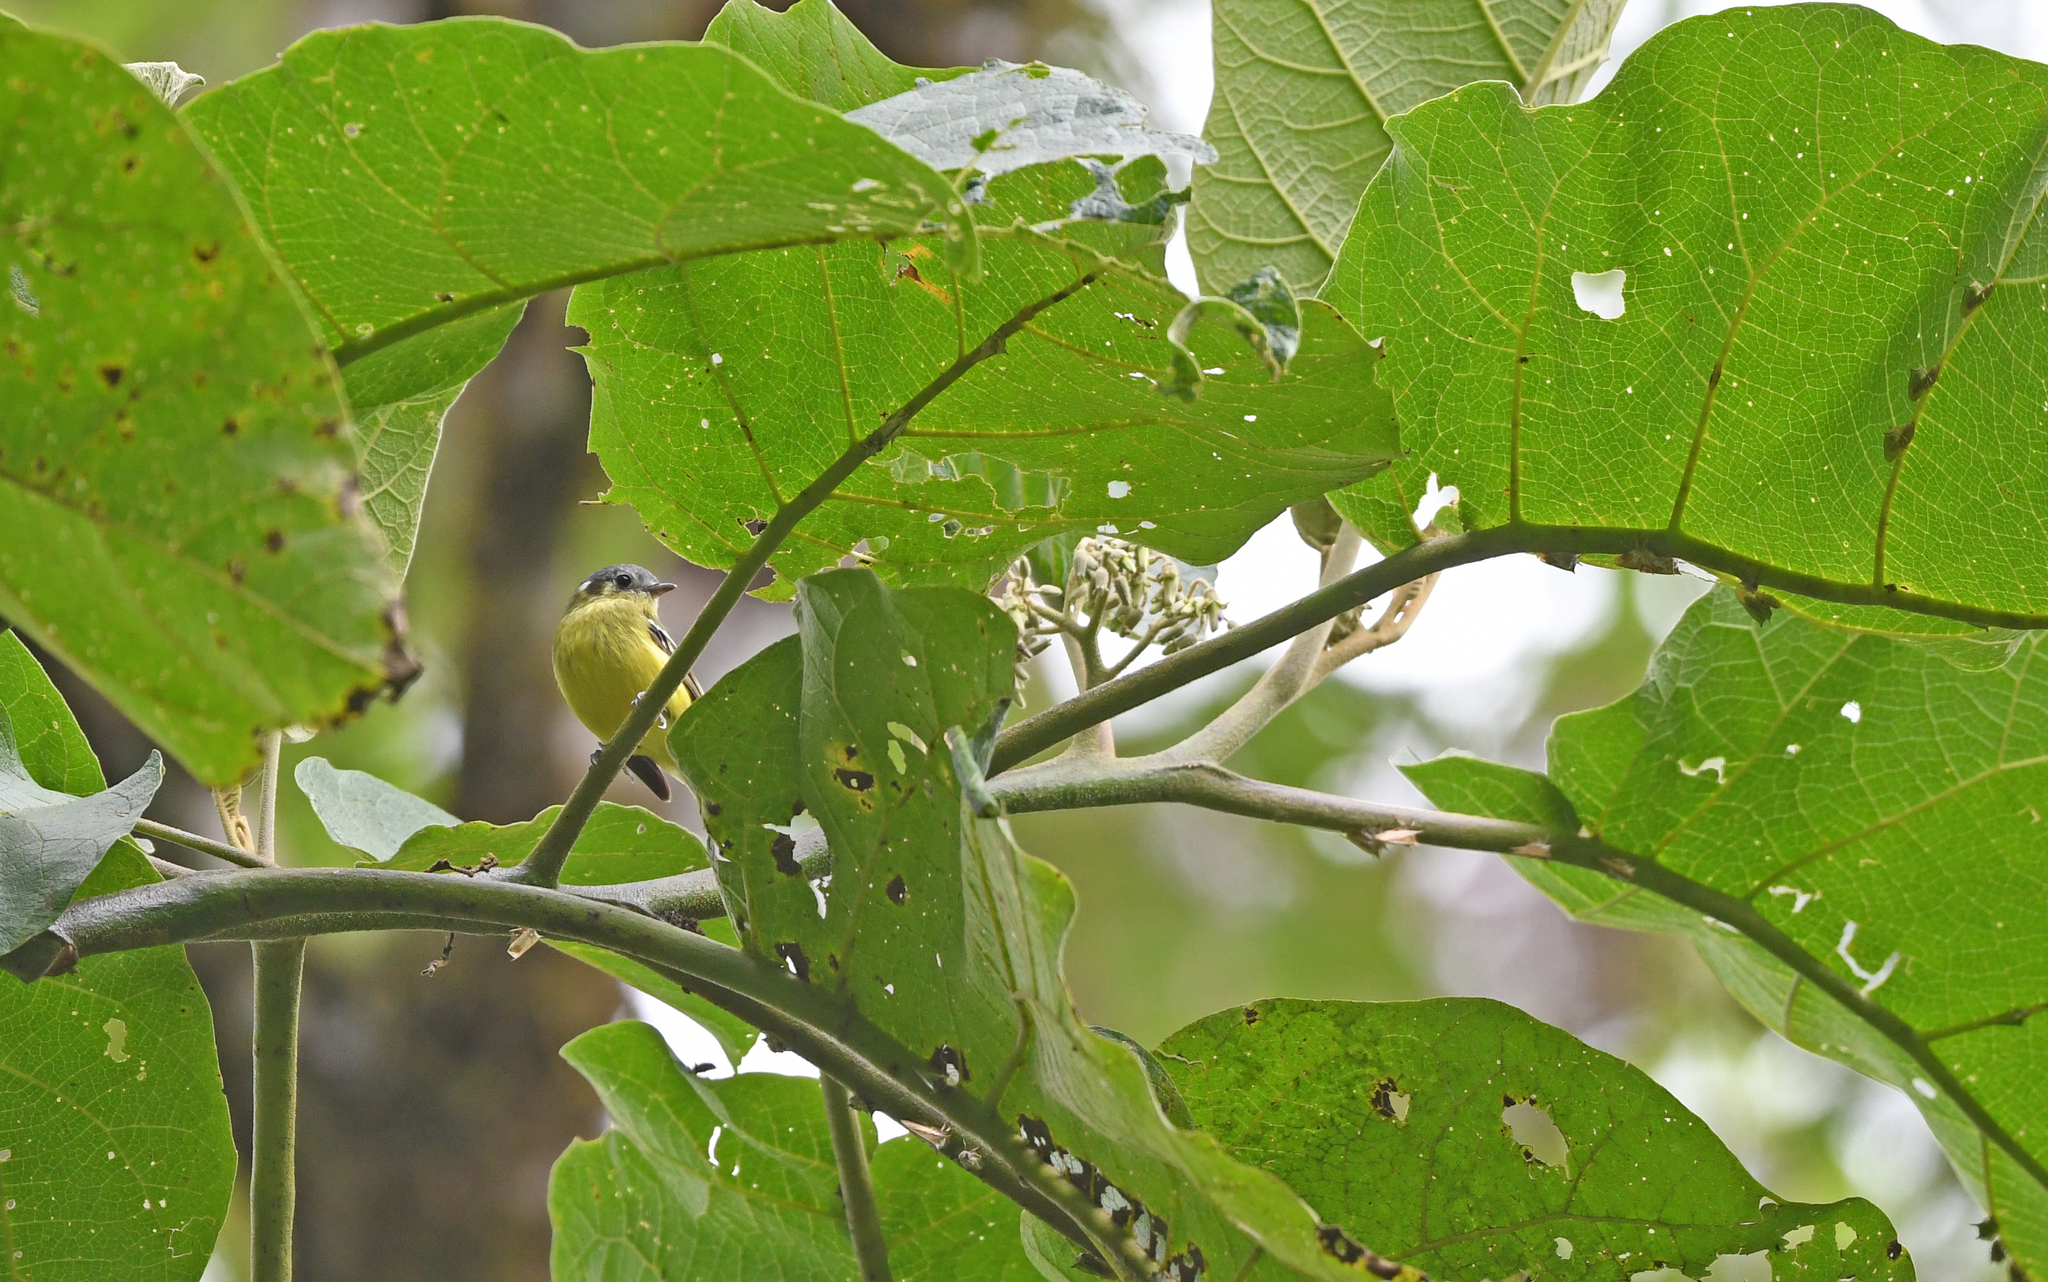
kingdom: Animalia
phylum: Chordata
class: Aves
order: Passeriformes
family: Tyrannidae
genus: Phyllomyias
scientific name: Phyllomyias cinereiceps
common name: Ashy-headed tyrannulet
